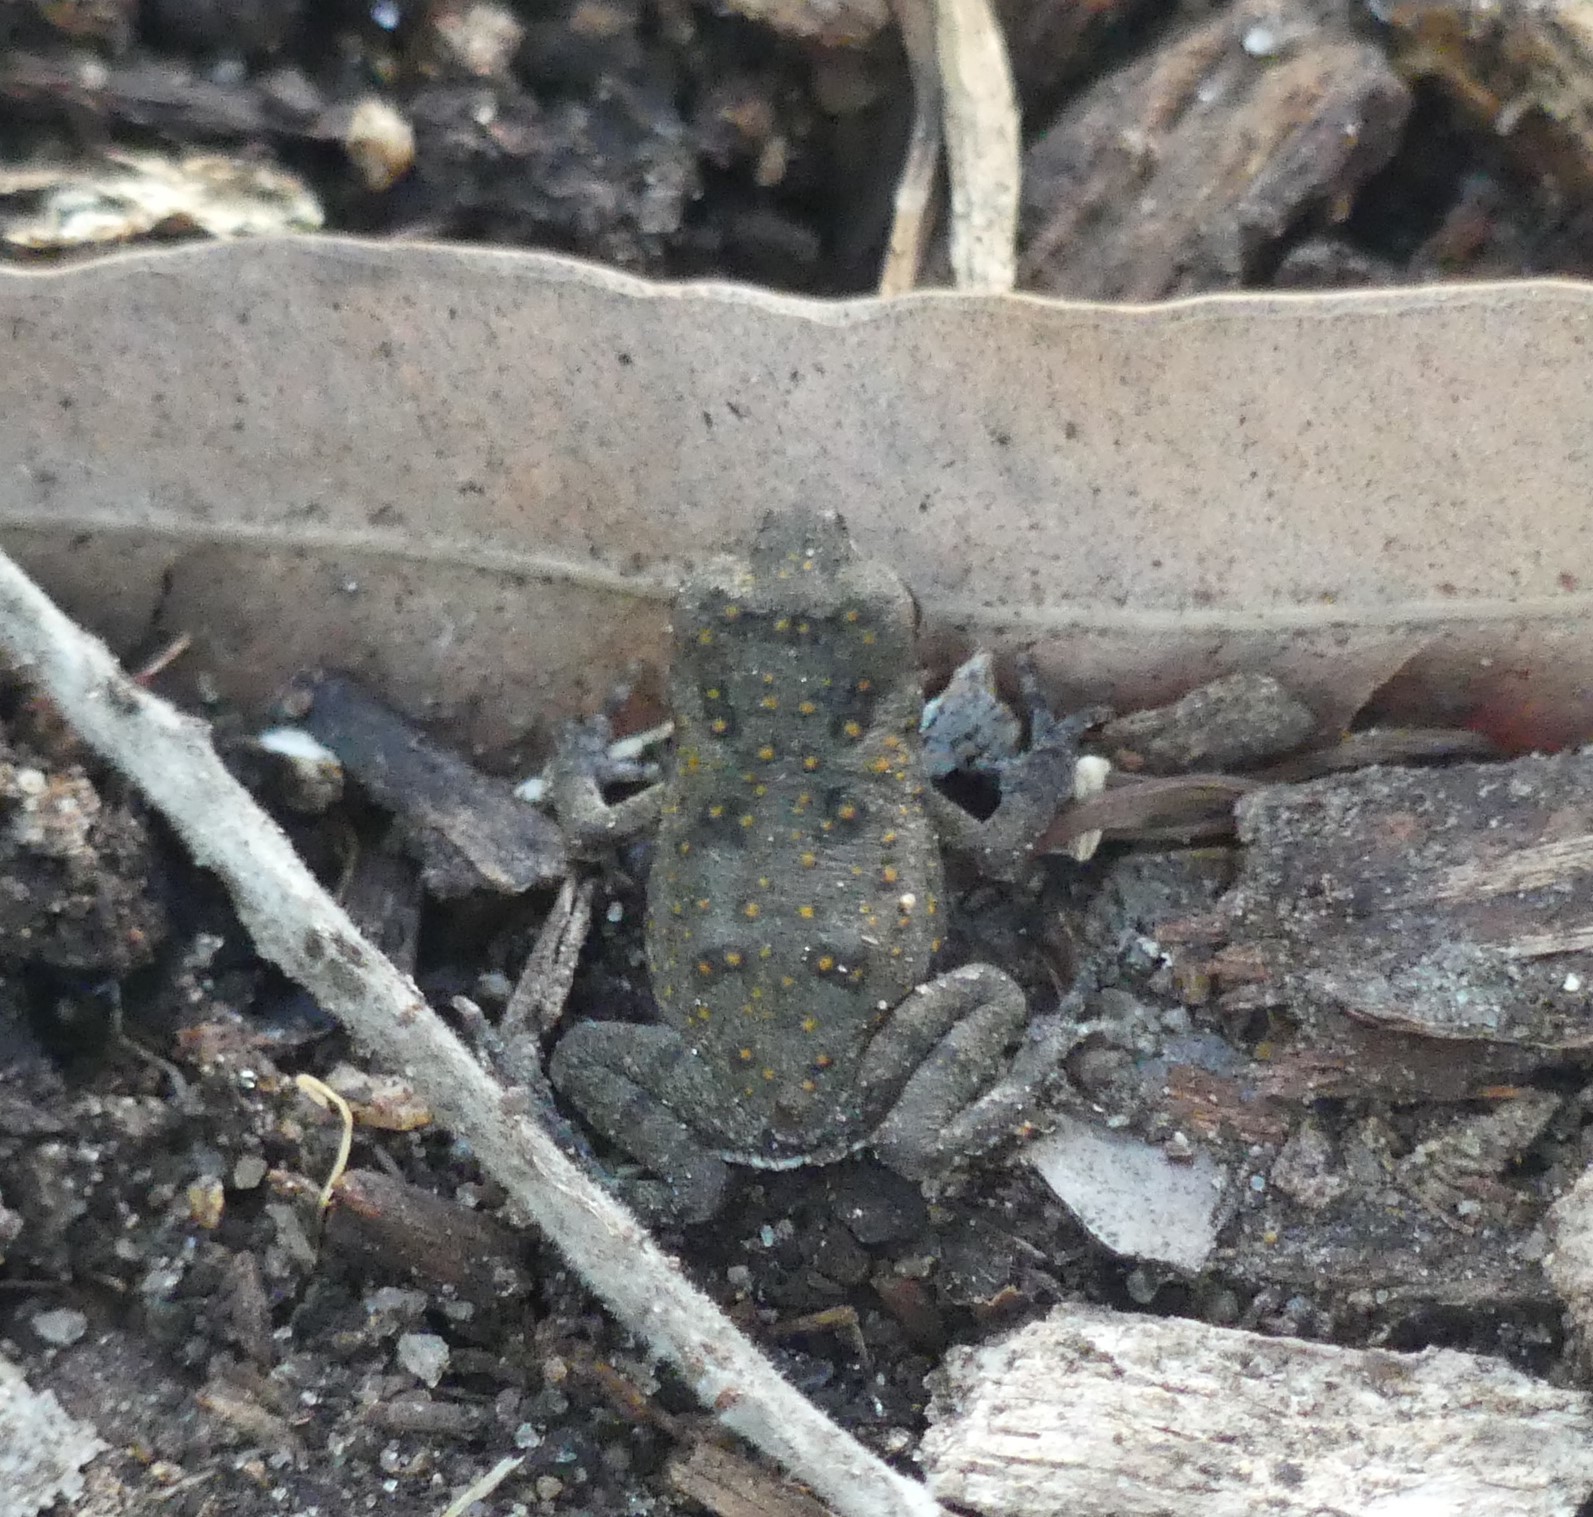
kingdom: Animalia
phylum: Chordata
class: Amphibia
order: Anura
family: Bufonidae
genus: Rhinella
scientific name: Rhinella marina
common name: Cane toad
